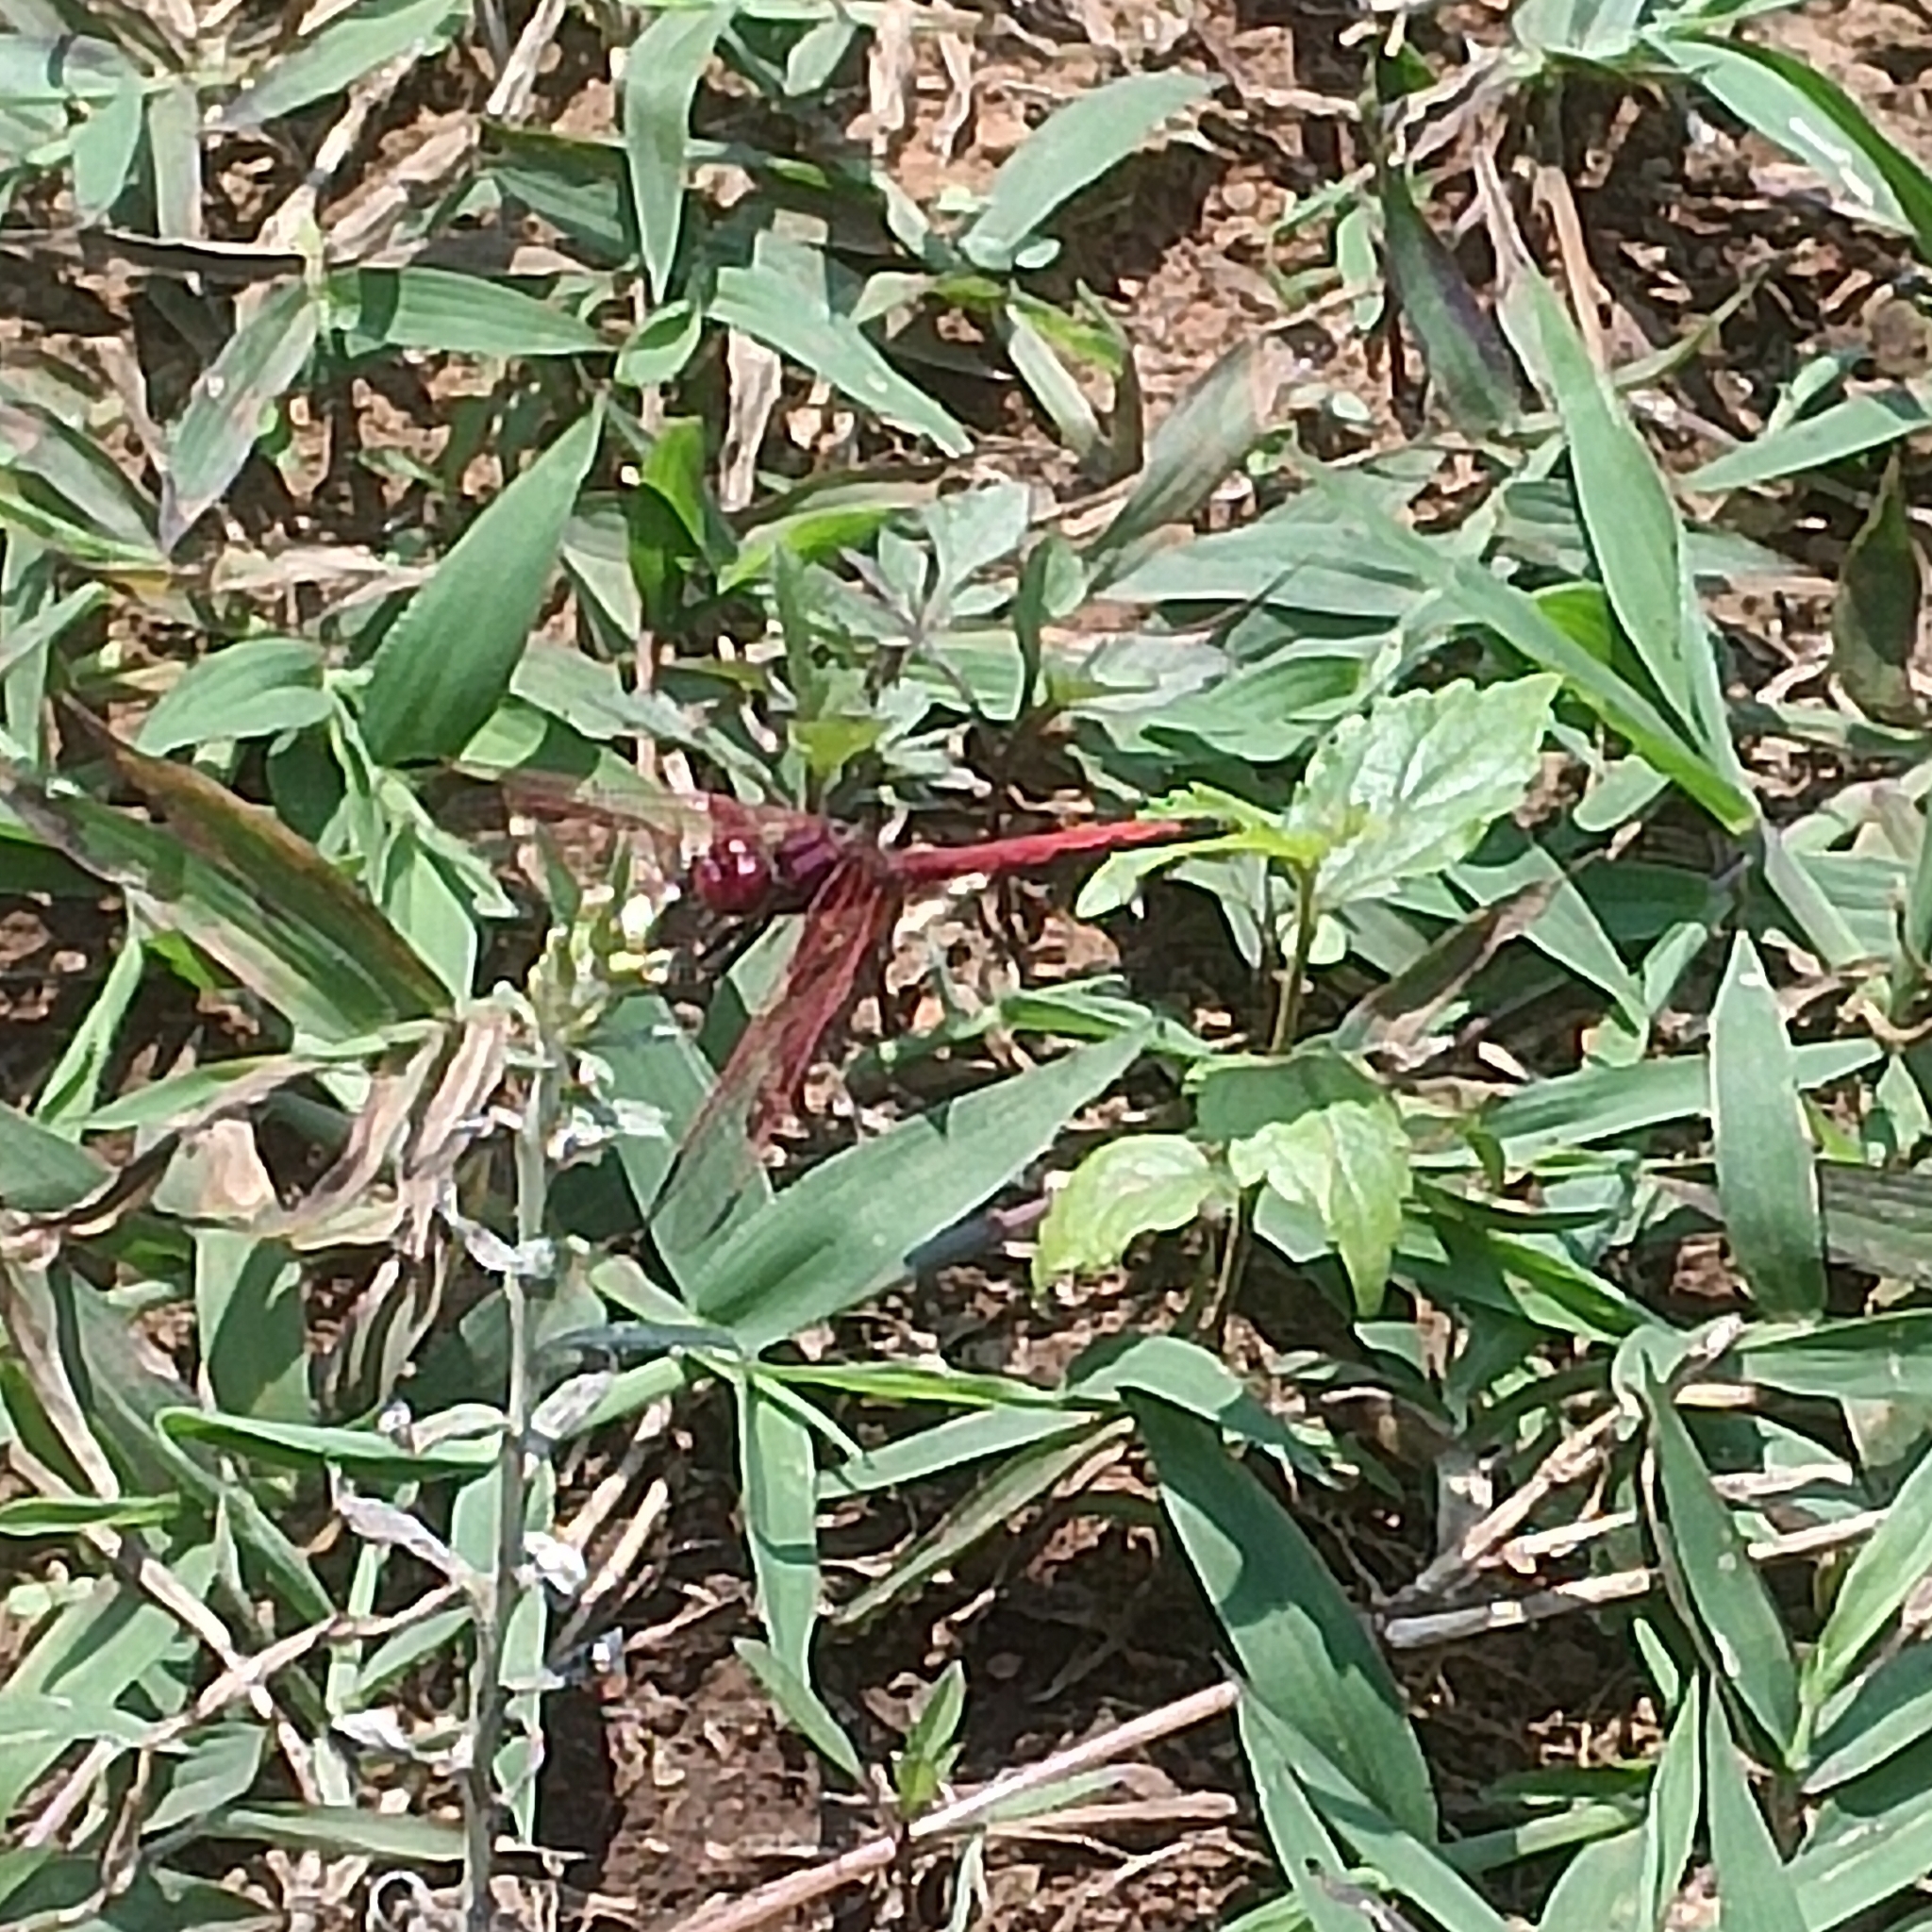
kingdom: Animalia
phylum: Arthropoda
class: Insecta
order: Odonata
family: Libellulidae
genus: Trithemis
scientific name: Trithemis arteriosa
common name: Red-veined dropwing
